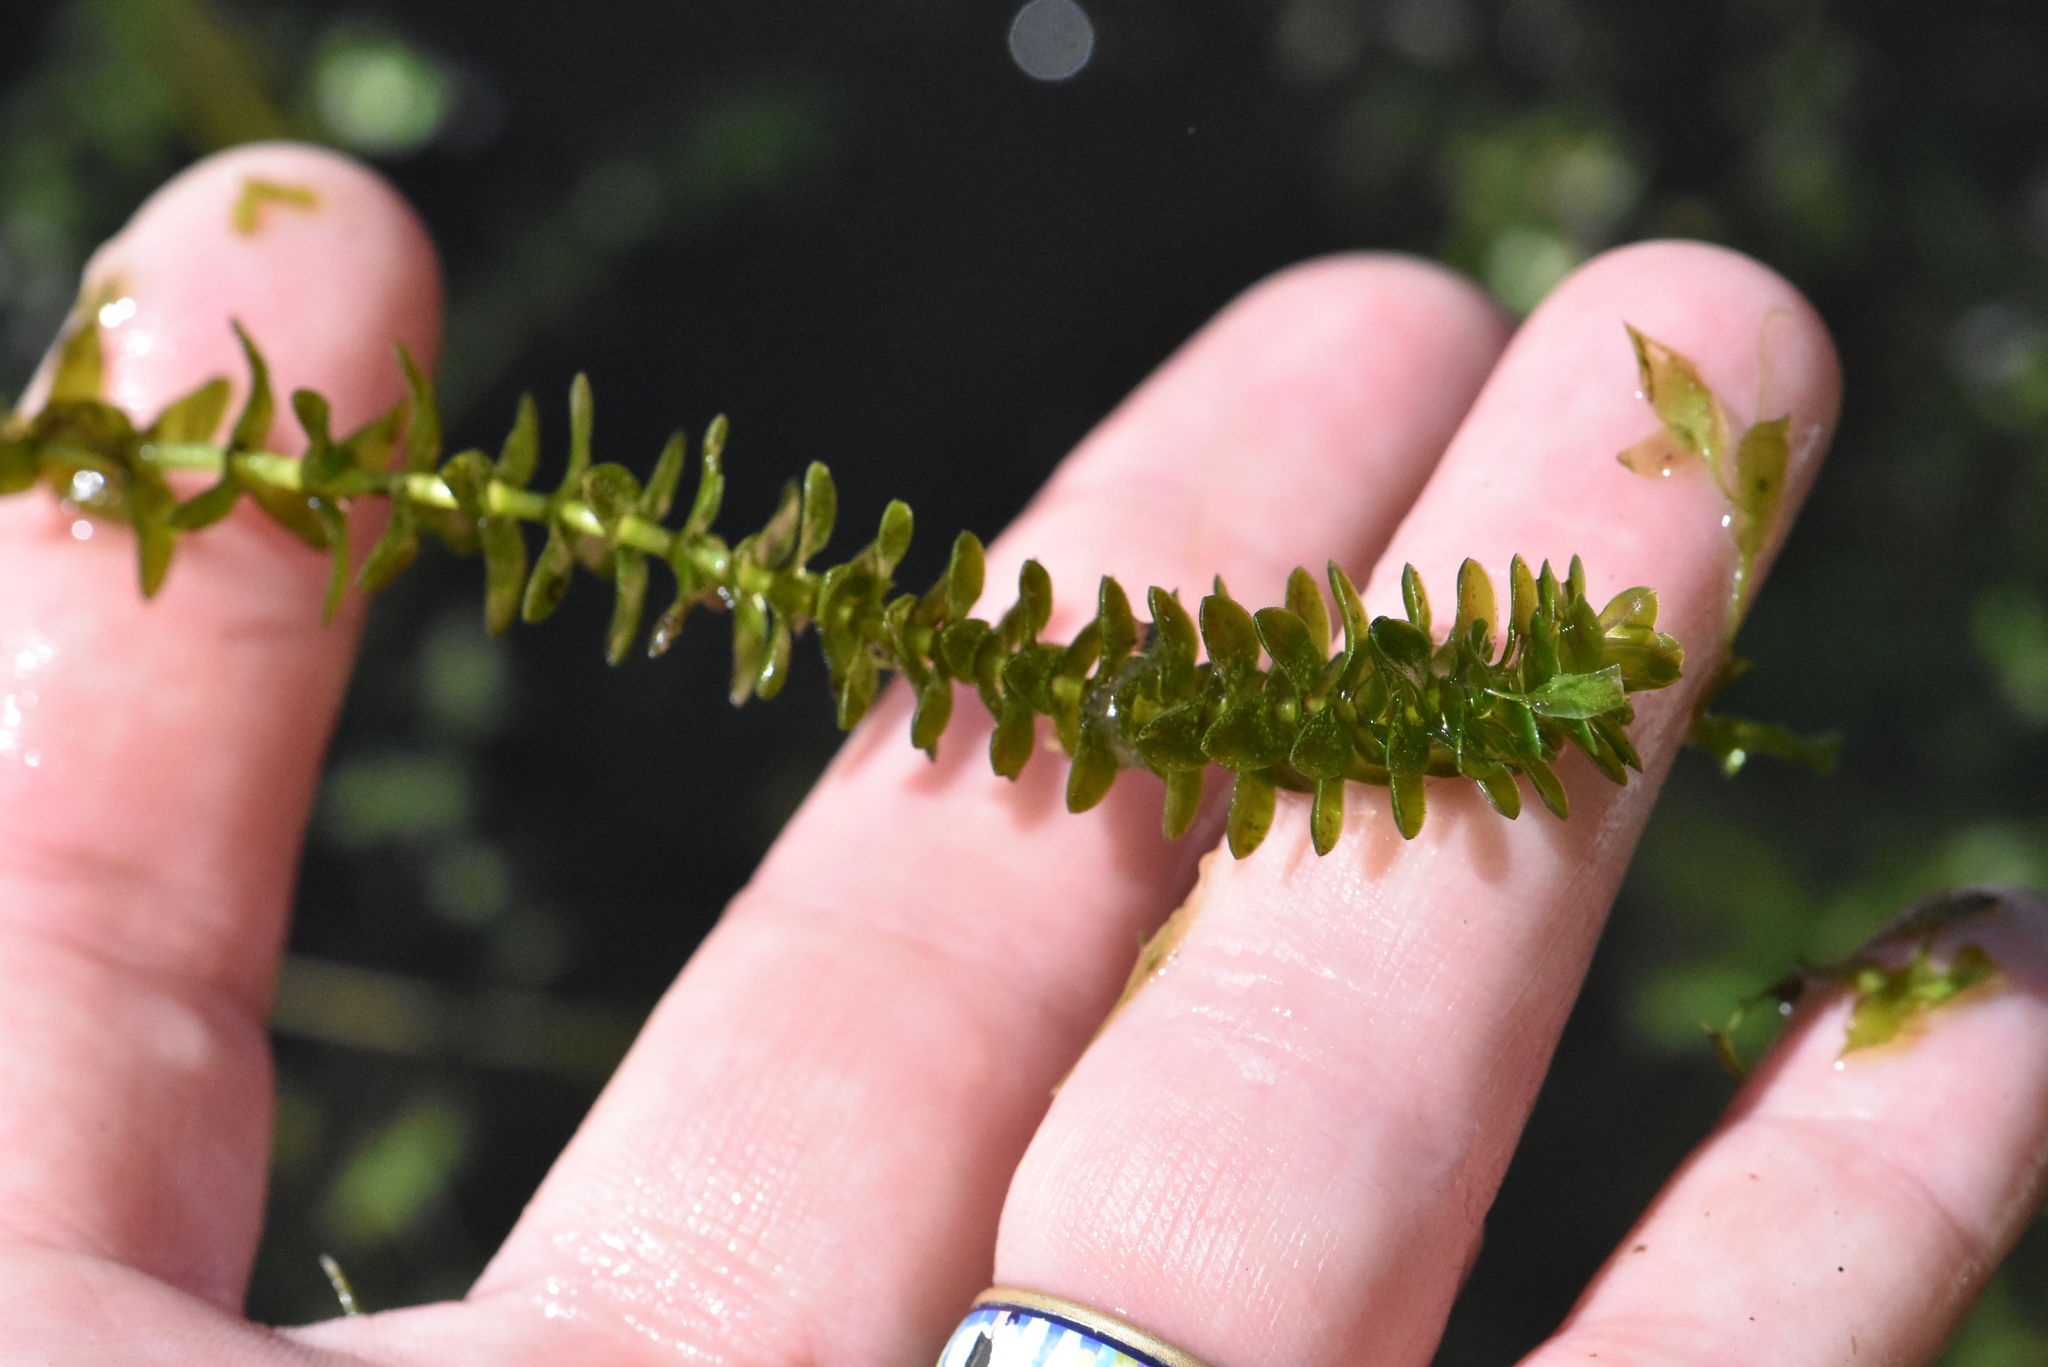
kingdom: Plantae
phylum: Tracheophyta
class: Liliopsida
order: Alismatales
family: Hydrocharitaceae
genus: Elodea
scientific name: Elodea canadensis
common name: Canadian waterweed
